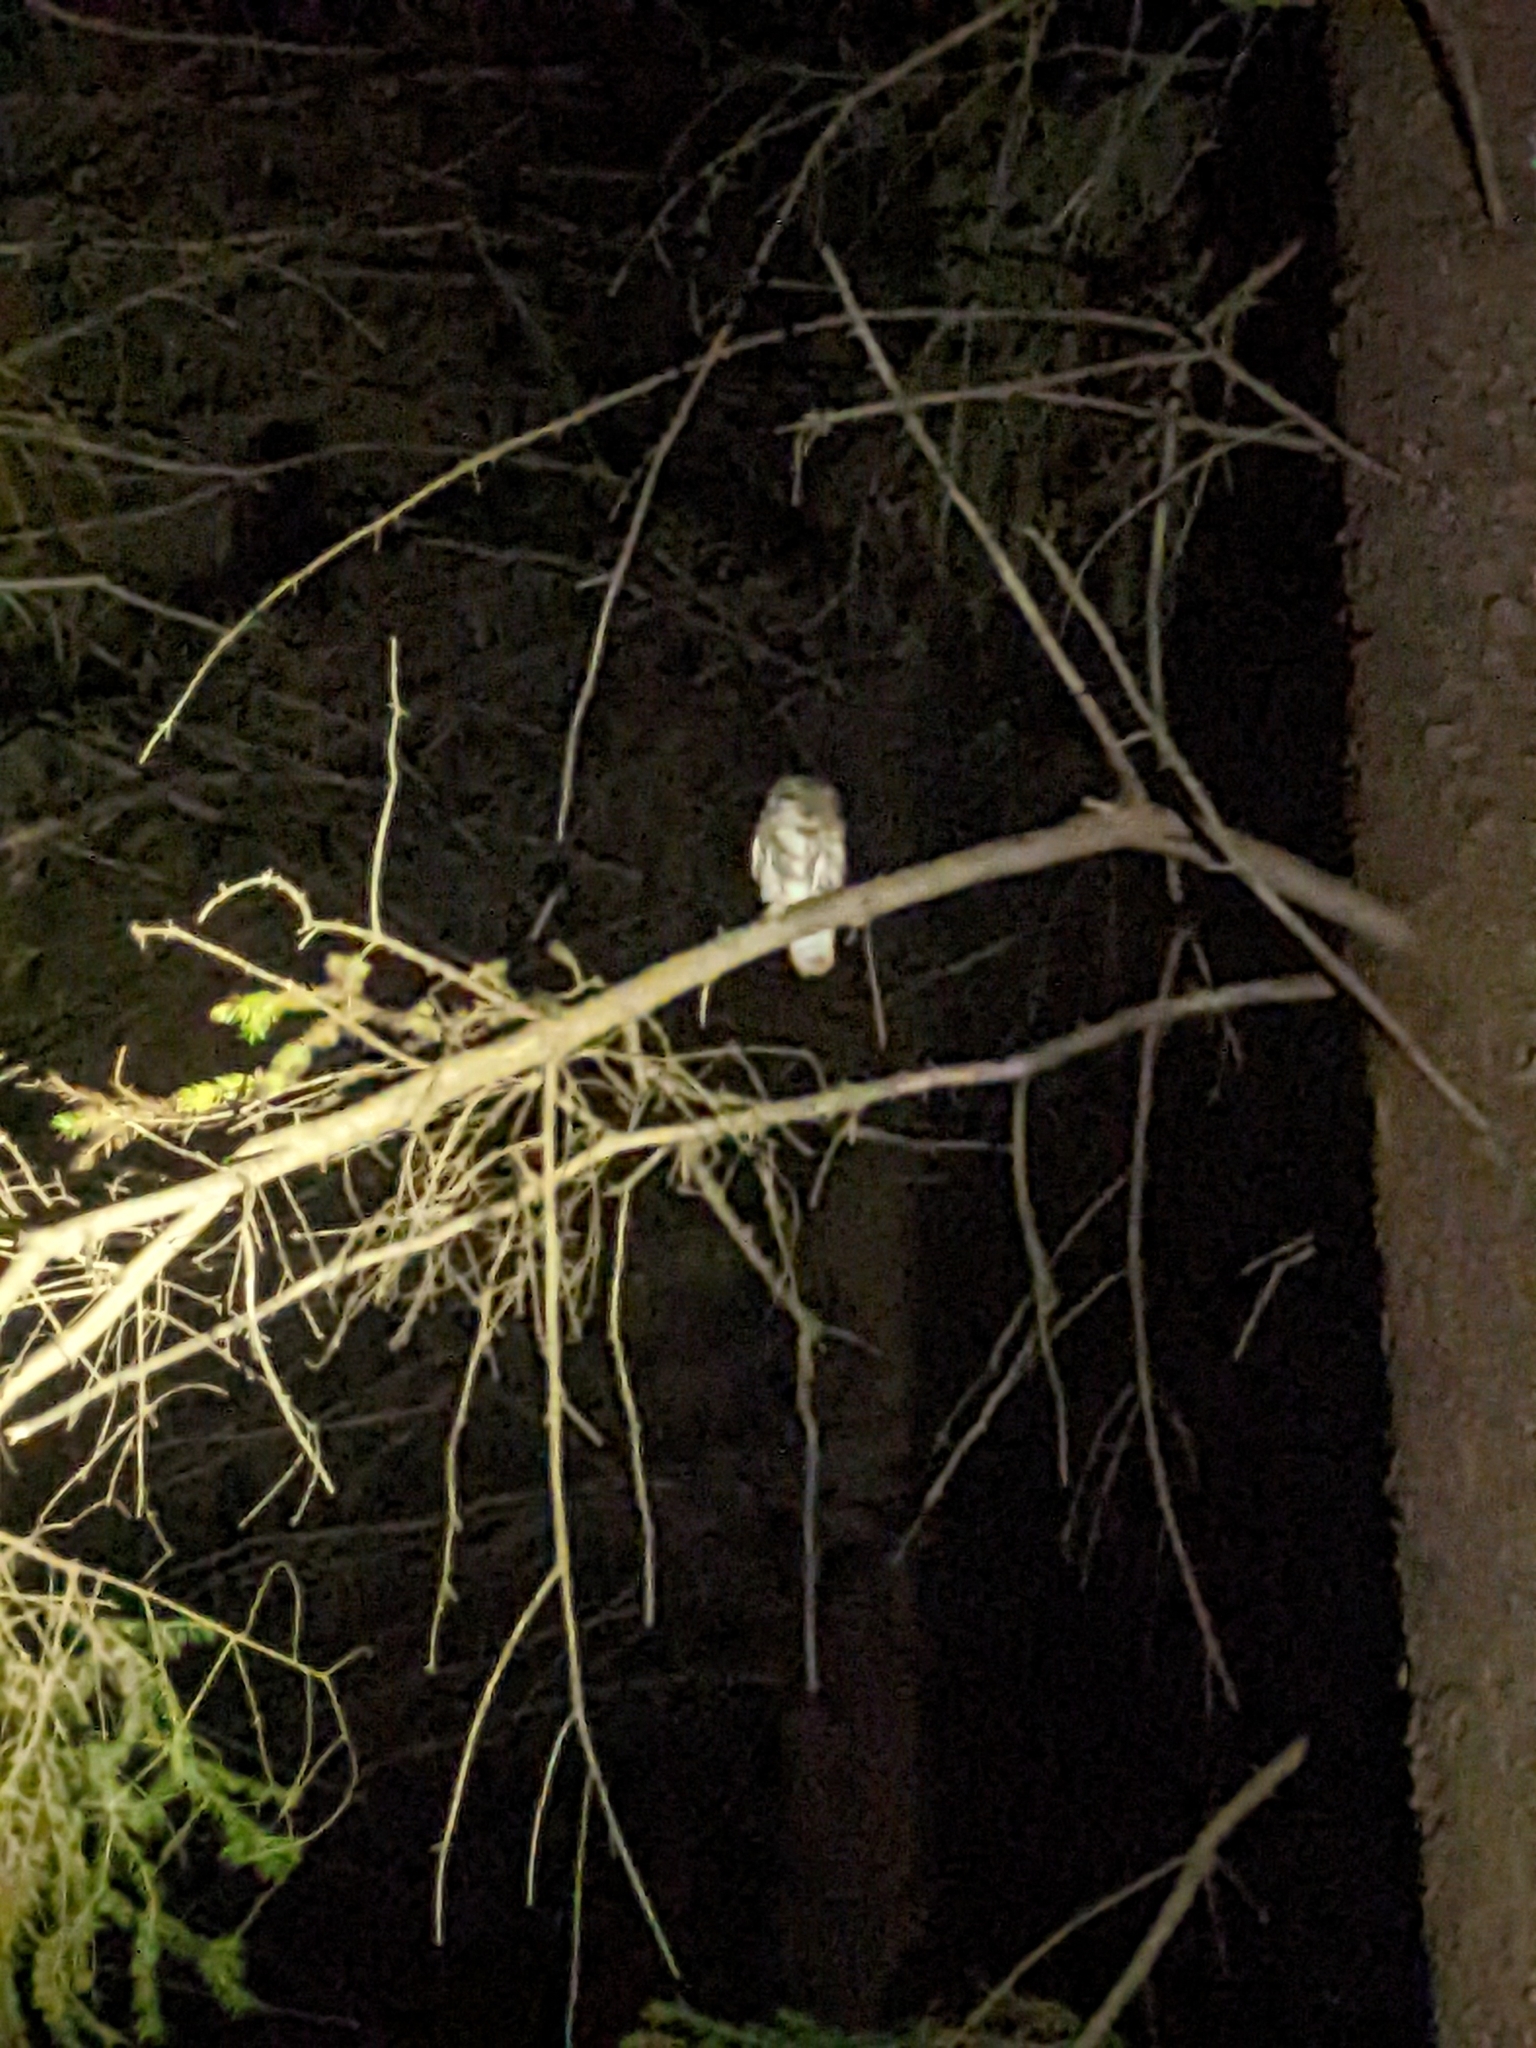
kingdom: Animalia
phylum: Chordata
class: Aves
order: Strigiformes
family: Strigidae
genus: Aegolius
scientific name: Aegolius acadicus
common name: Northern saw-whet owl
